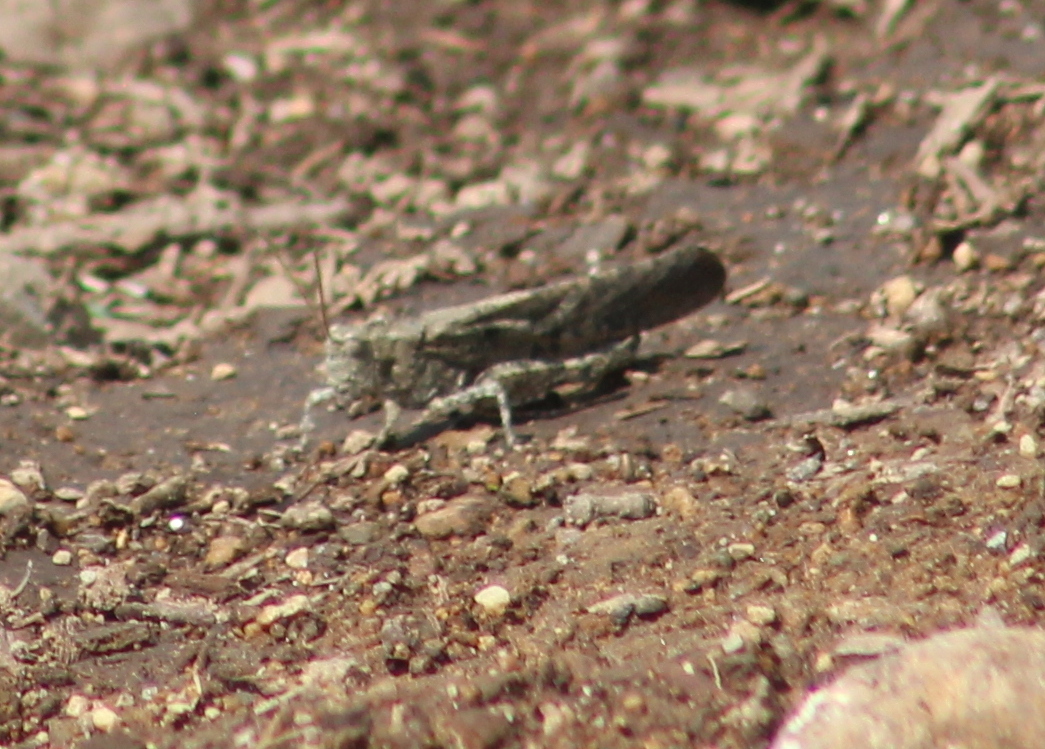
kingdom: Animalia
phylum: Arthropoda
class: Insecta
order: Orthoptera
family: Acrididae
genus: Dissosteira
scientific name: Dissosteira carolina
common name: Carolina grasshopper
